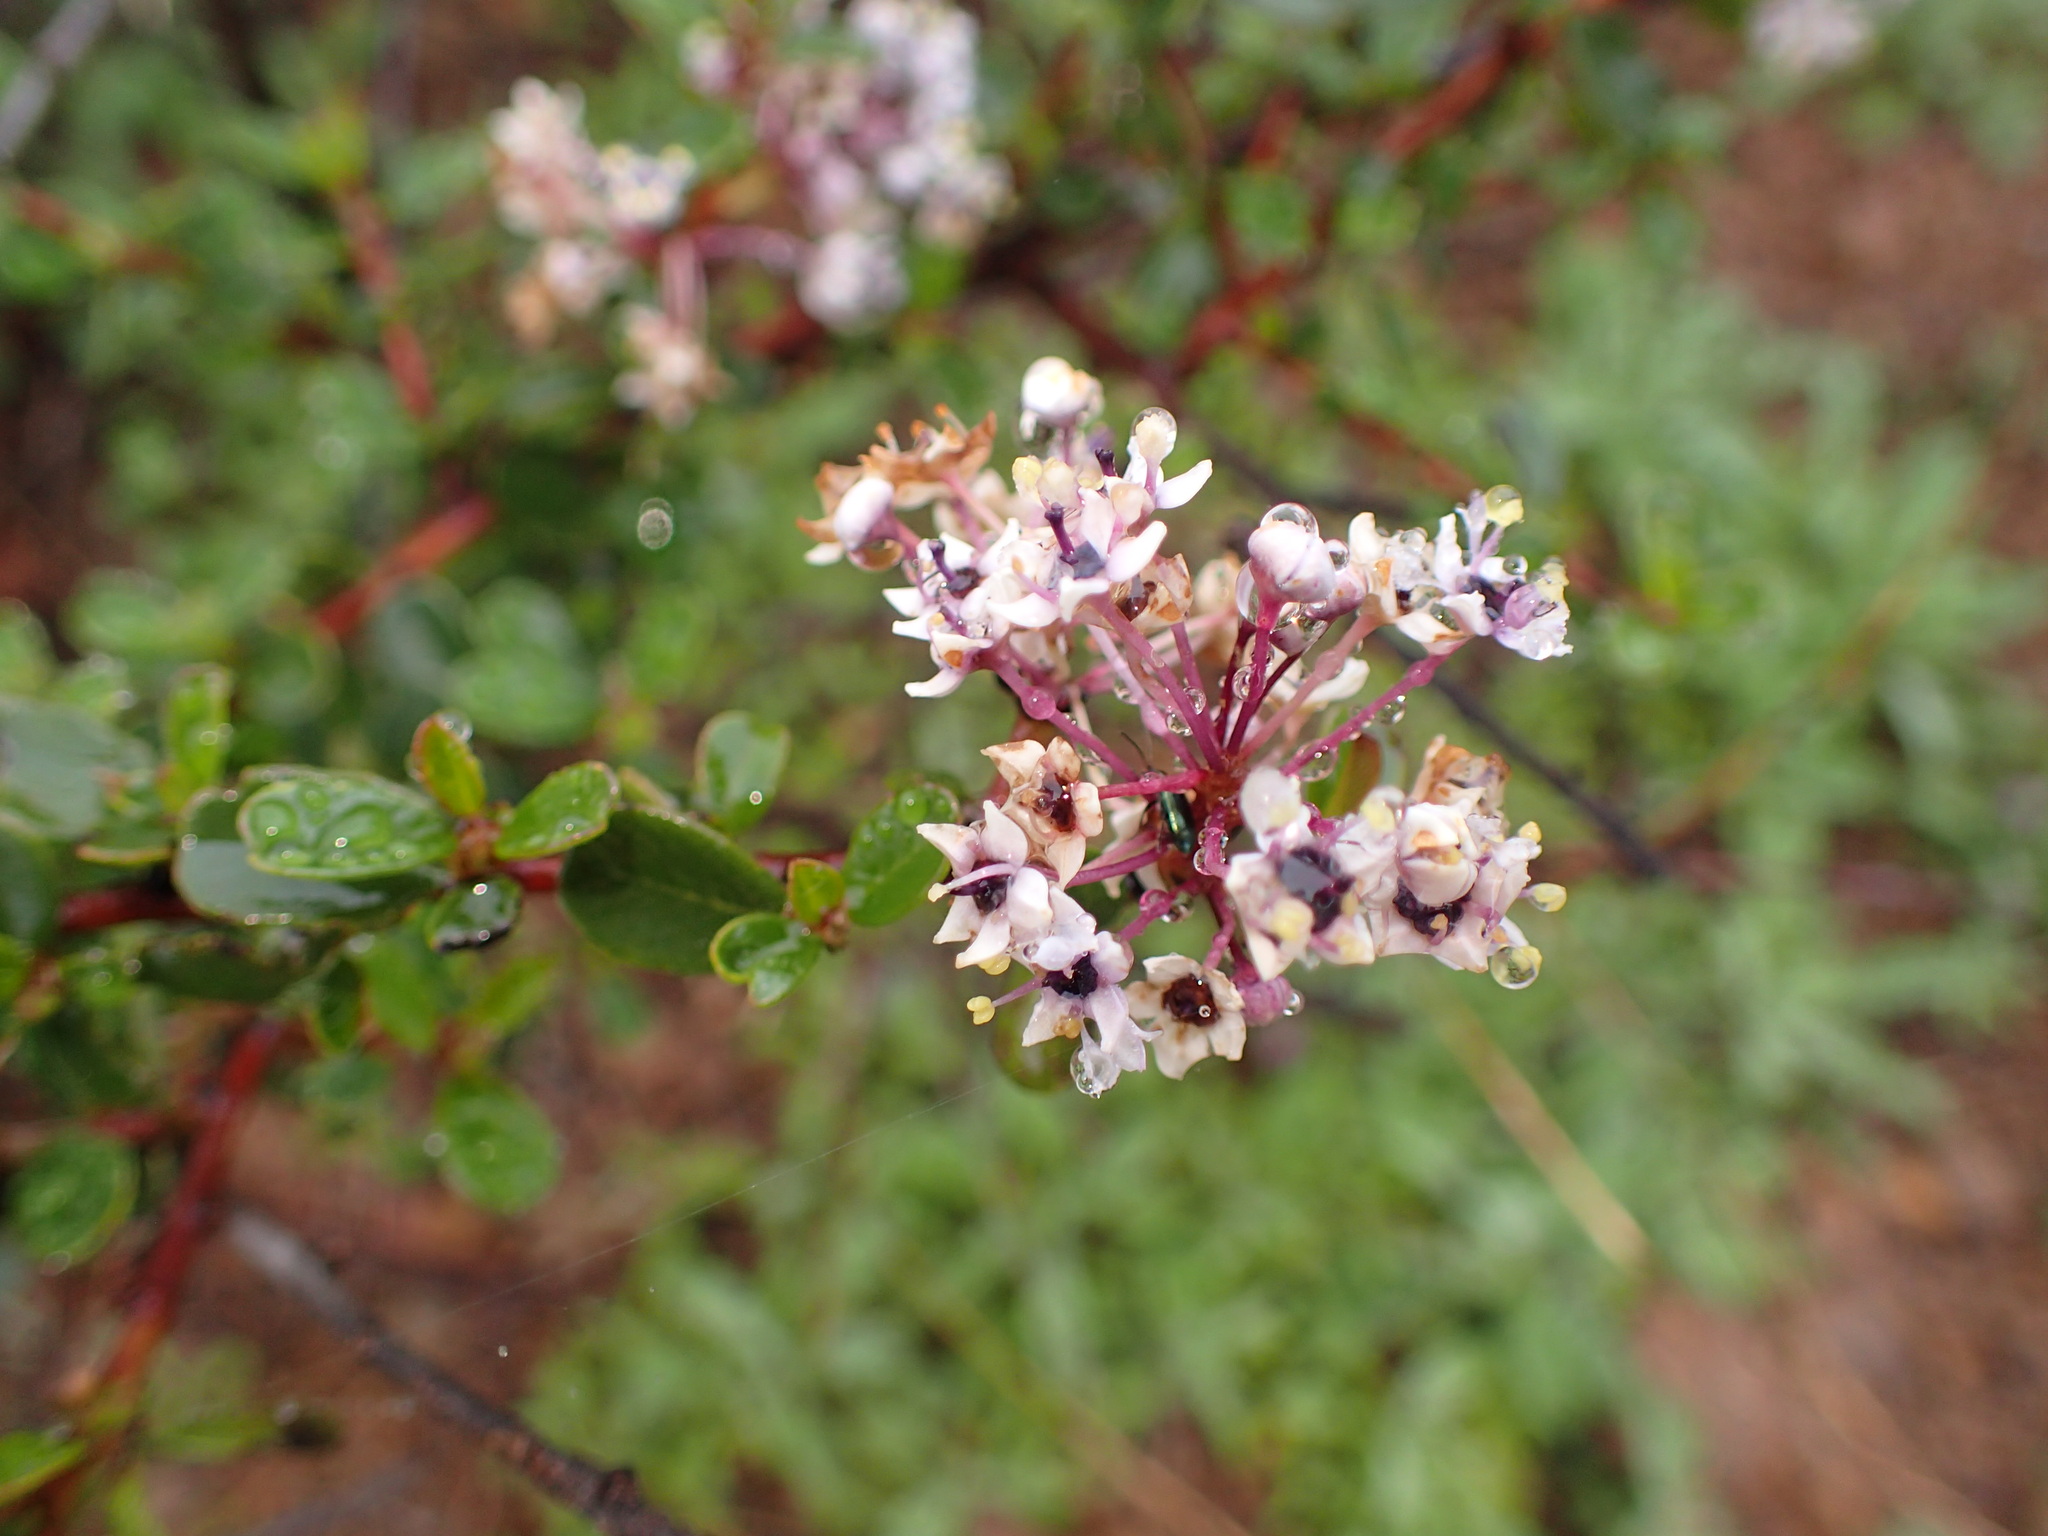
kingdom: Plantae
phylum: Tracheophyta
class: Magnoliopsida
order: Rosales
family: Rhamnaceae
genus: Ceanothus
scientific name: Ceanothus megacarpus
